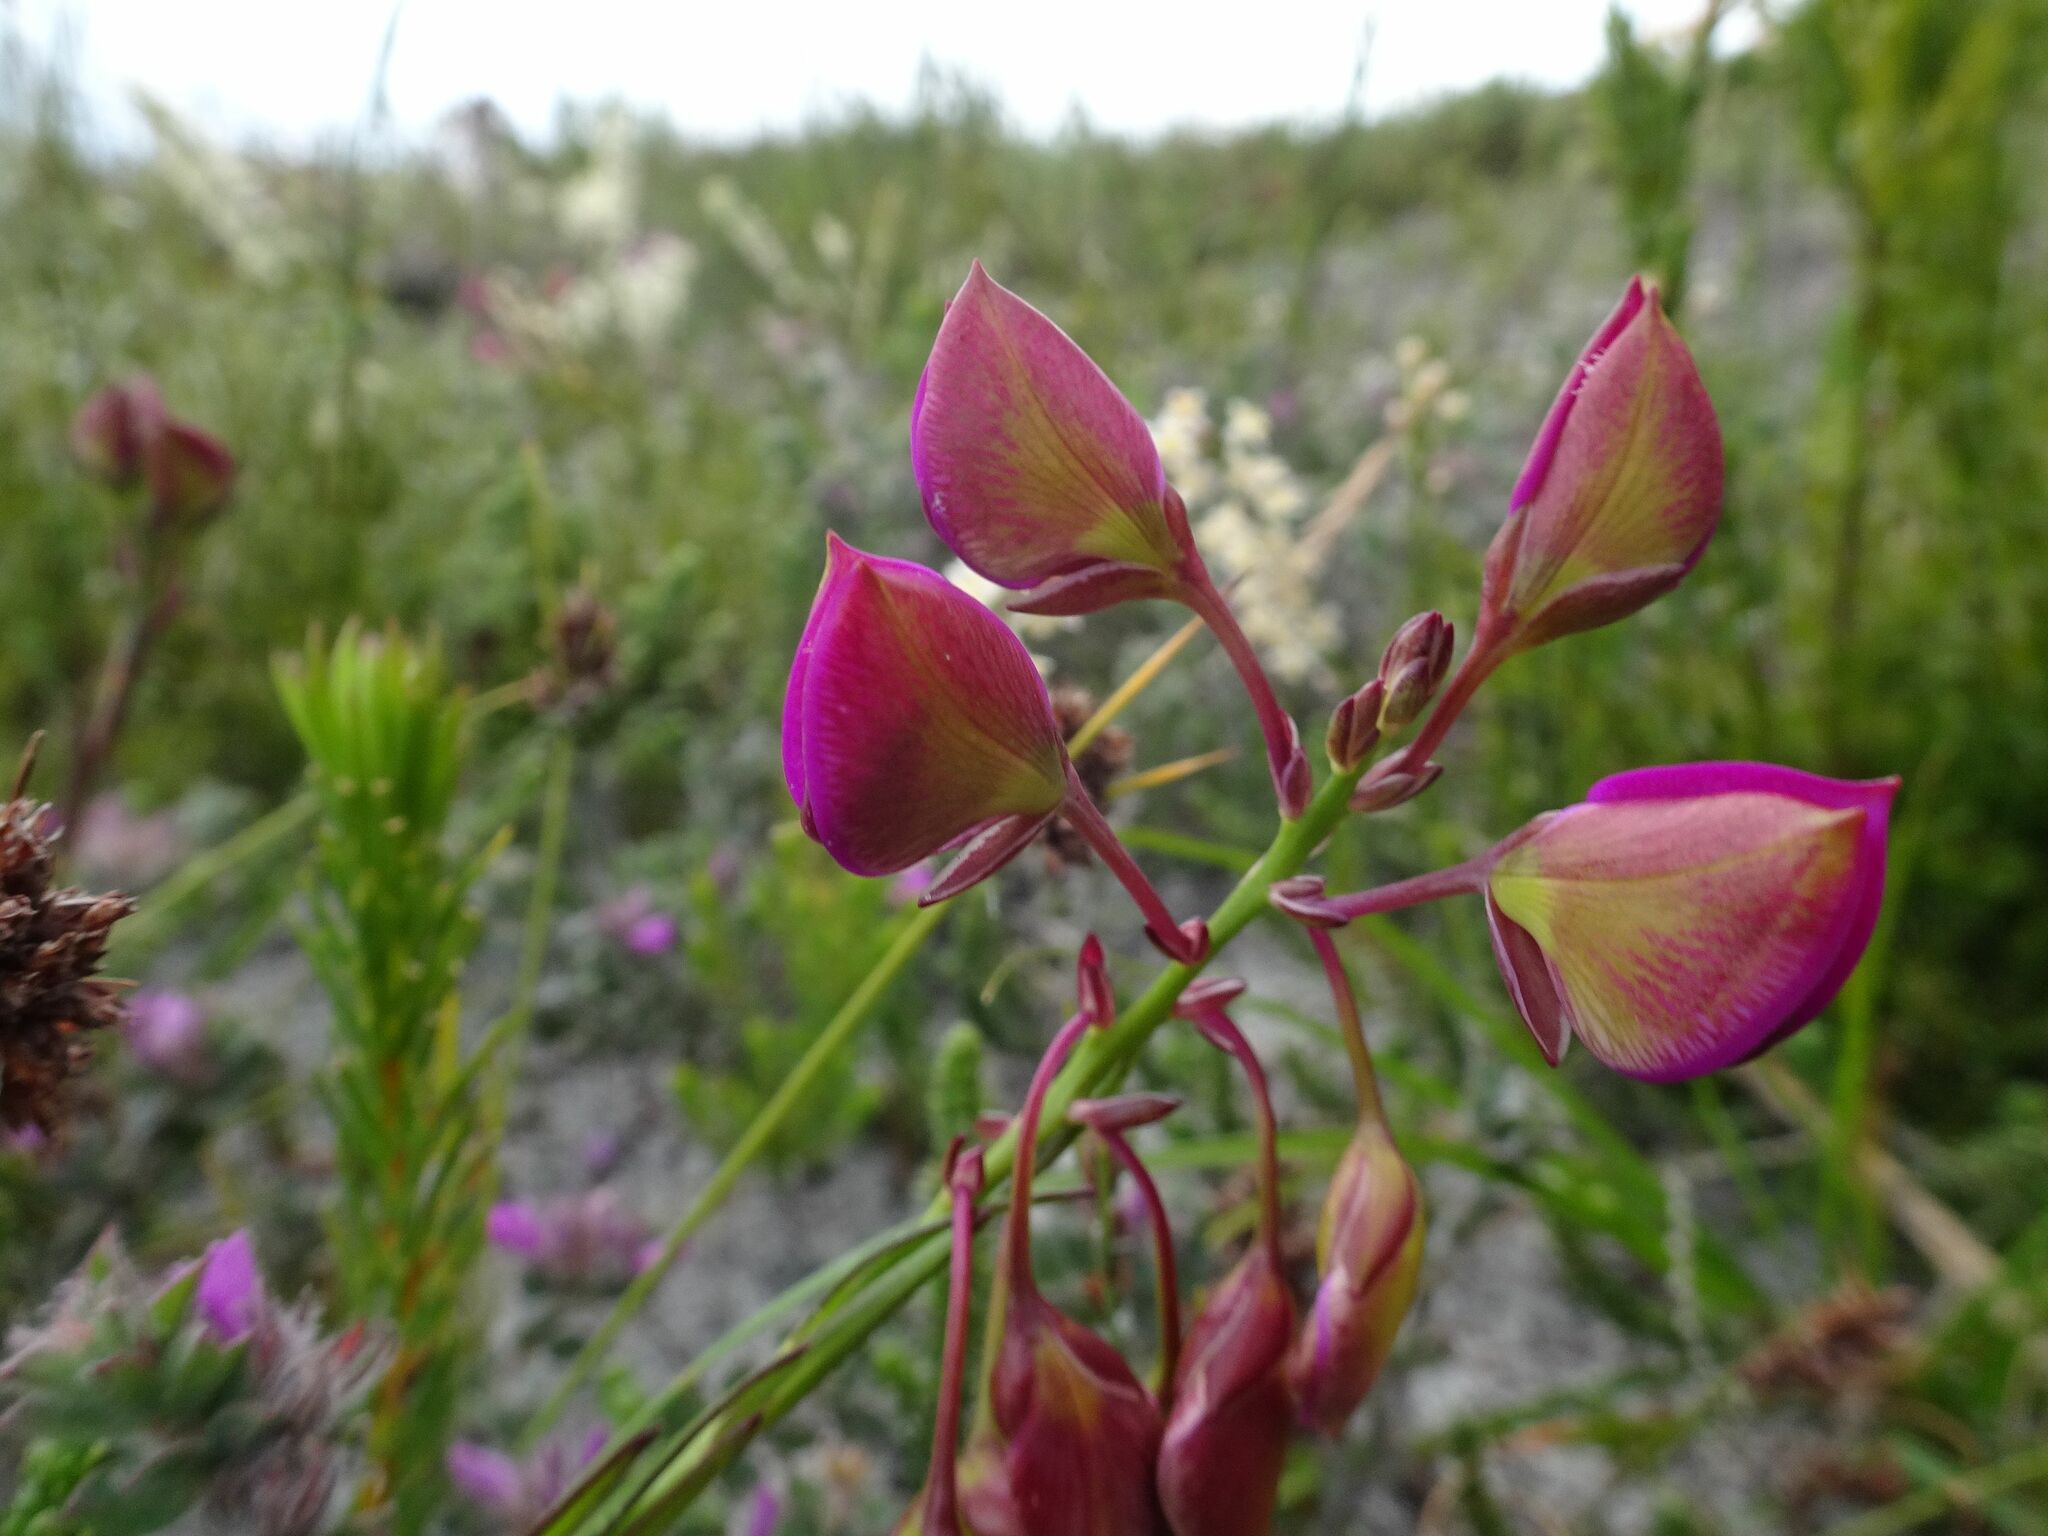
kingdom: Plantae
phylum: Tracheophyta
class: Magnoliopsida
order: Fabales
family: Polygalaceae
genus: Polygala
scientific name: Polygala bracteolata
